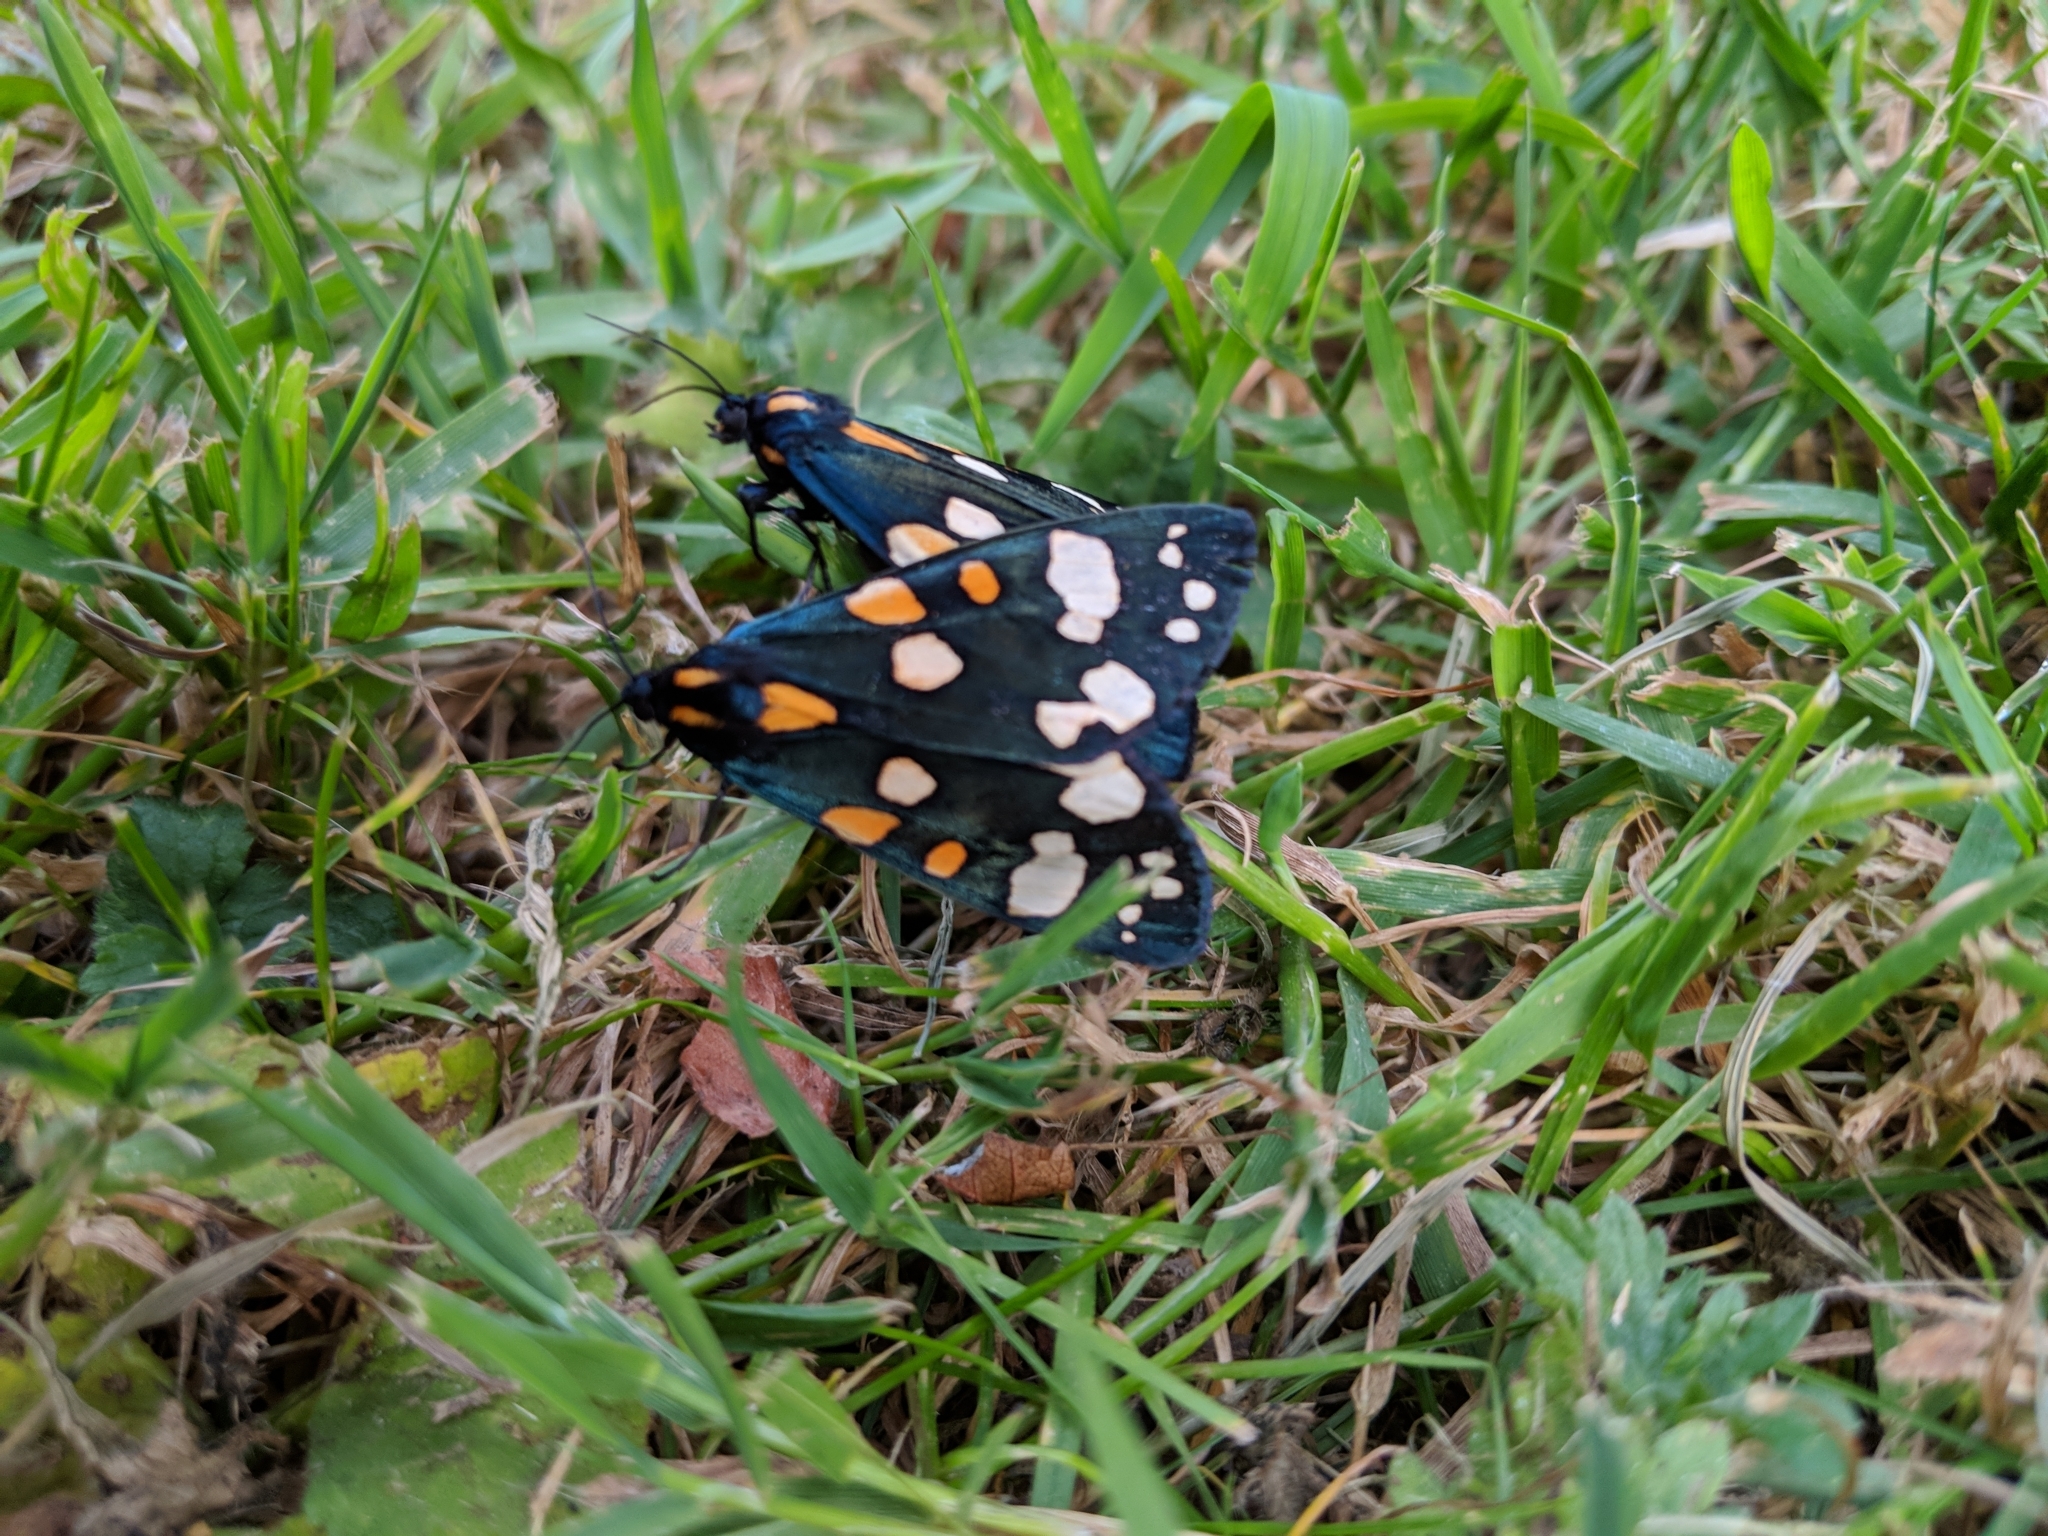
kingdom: Animalia
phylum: Arthropoda
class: Insecta
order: Lepidoptera
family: Erebidae
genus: Callimorpha
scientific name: Callimorpha dominula
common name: Scarlet tiger
